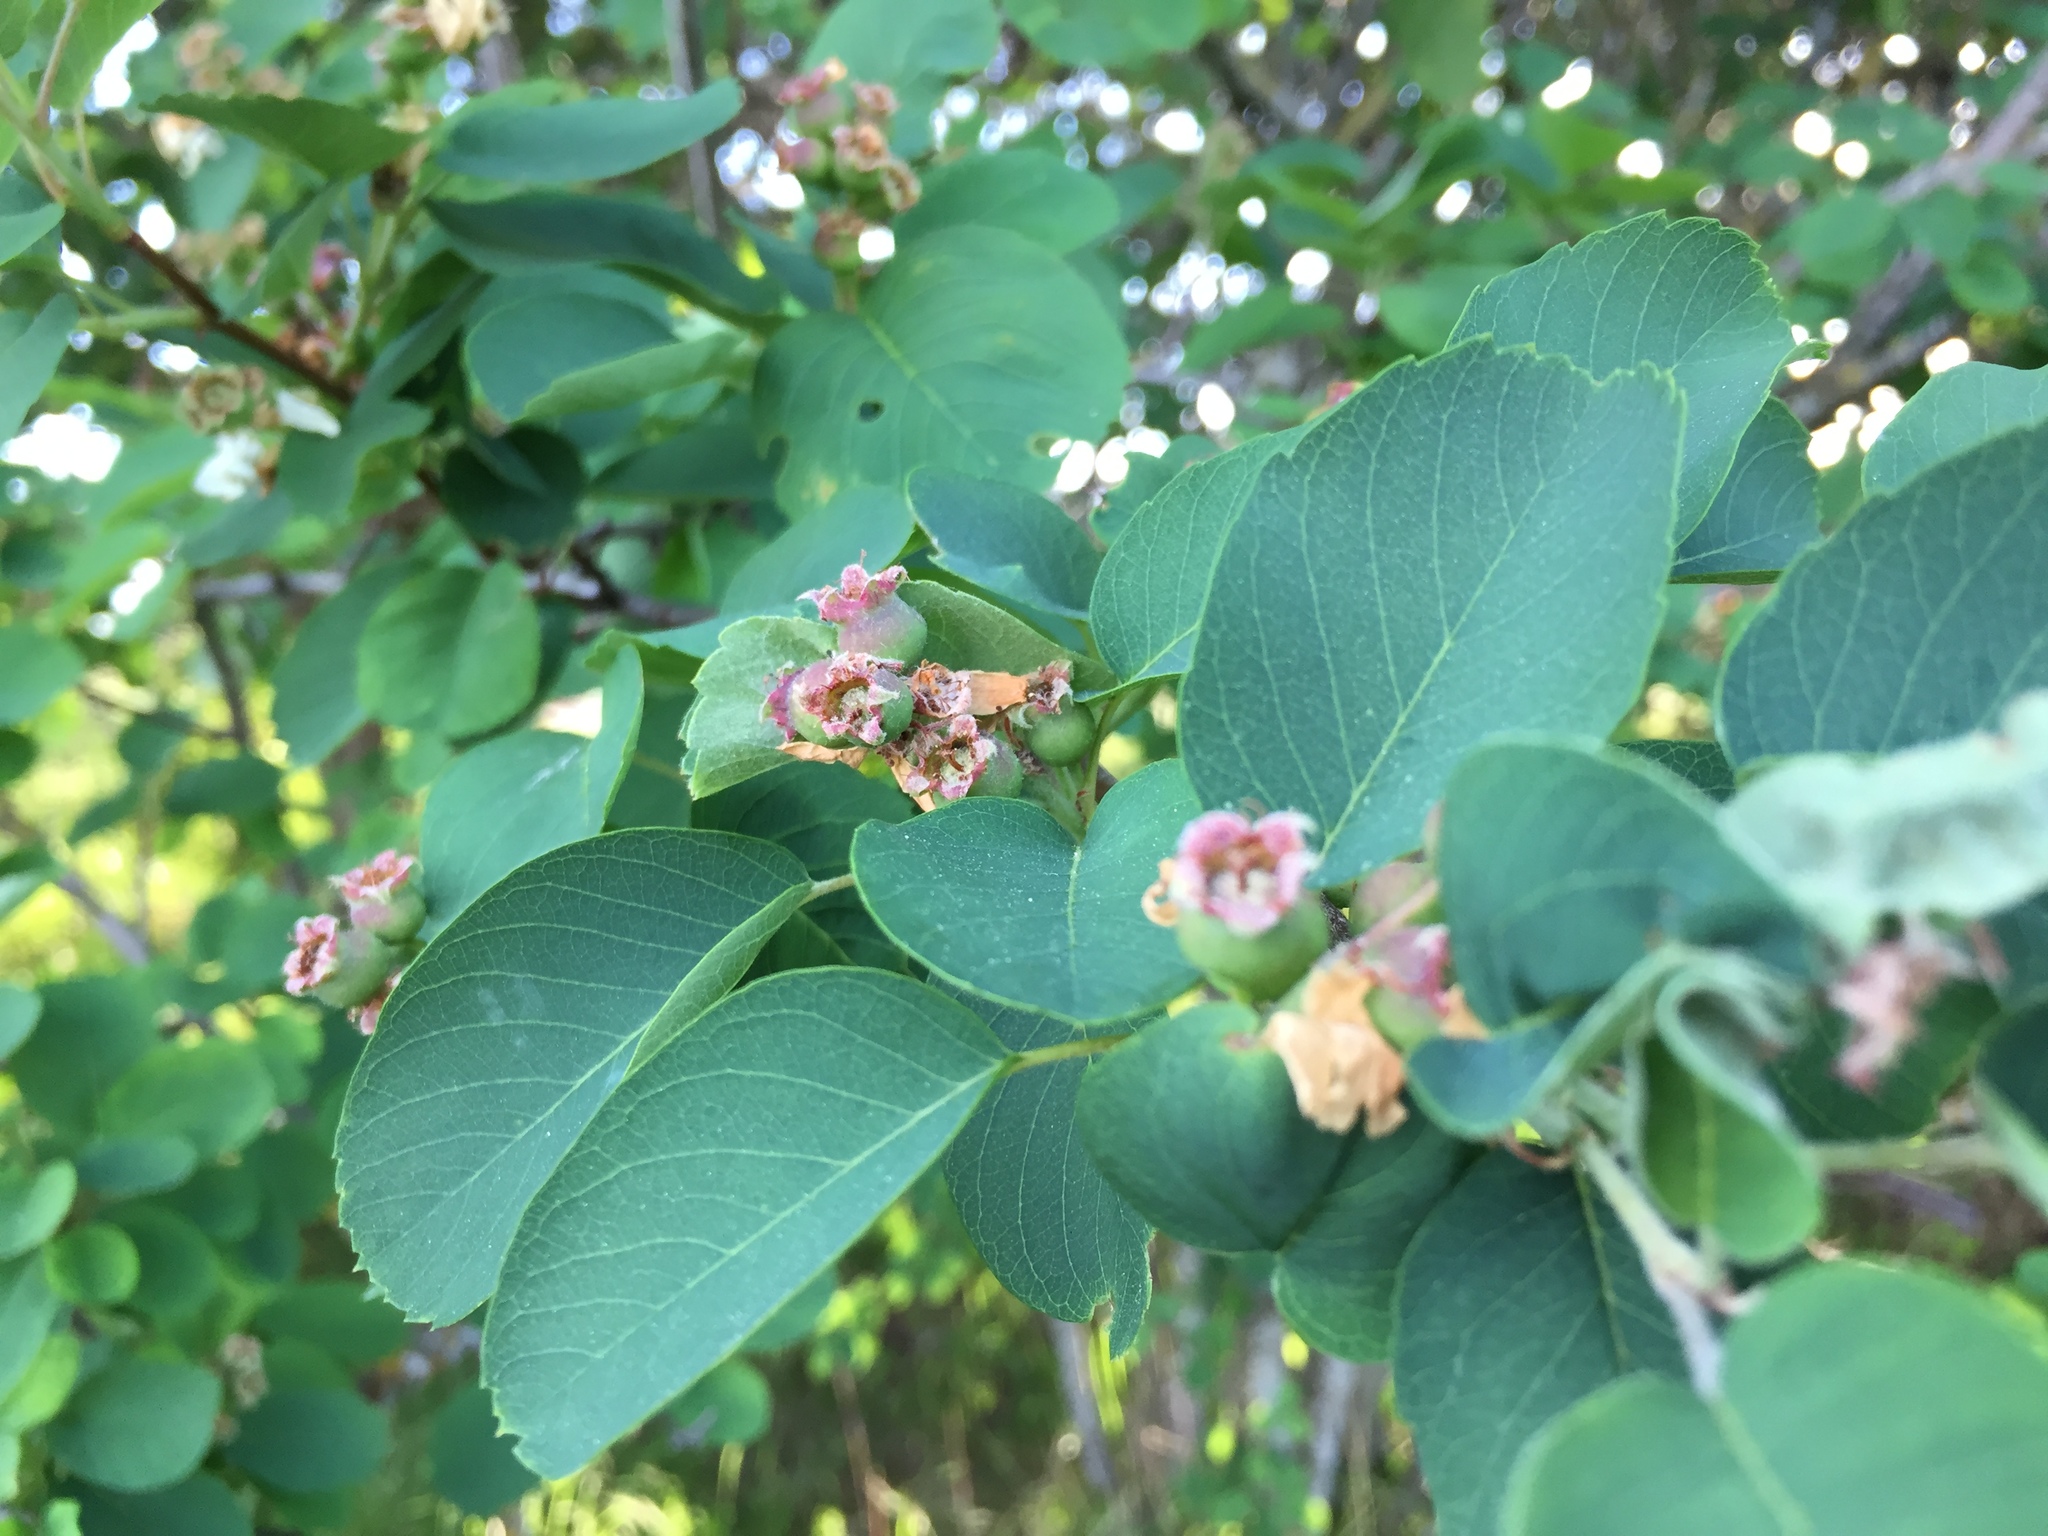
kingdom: Plantae
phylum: Tracheophyta
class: Magnoliopsida
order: Rosales
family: Rosaceae
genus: Amelanchier
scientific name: Amelanchier alnifolia
